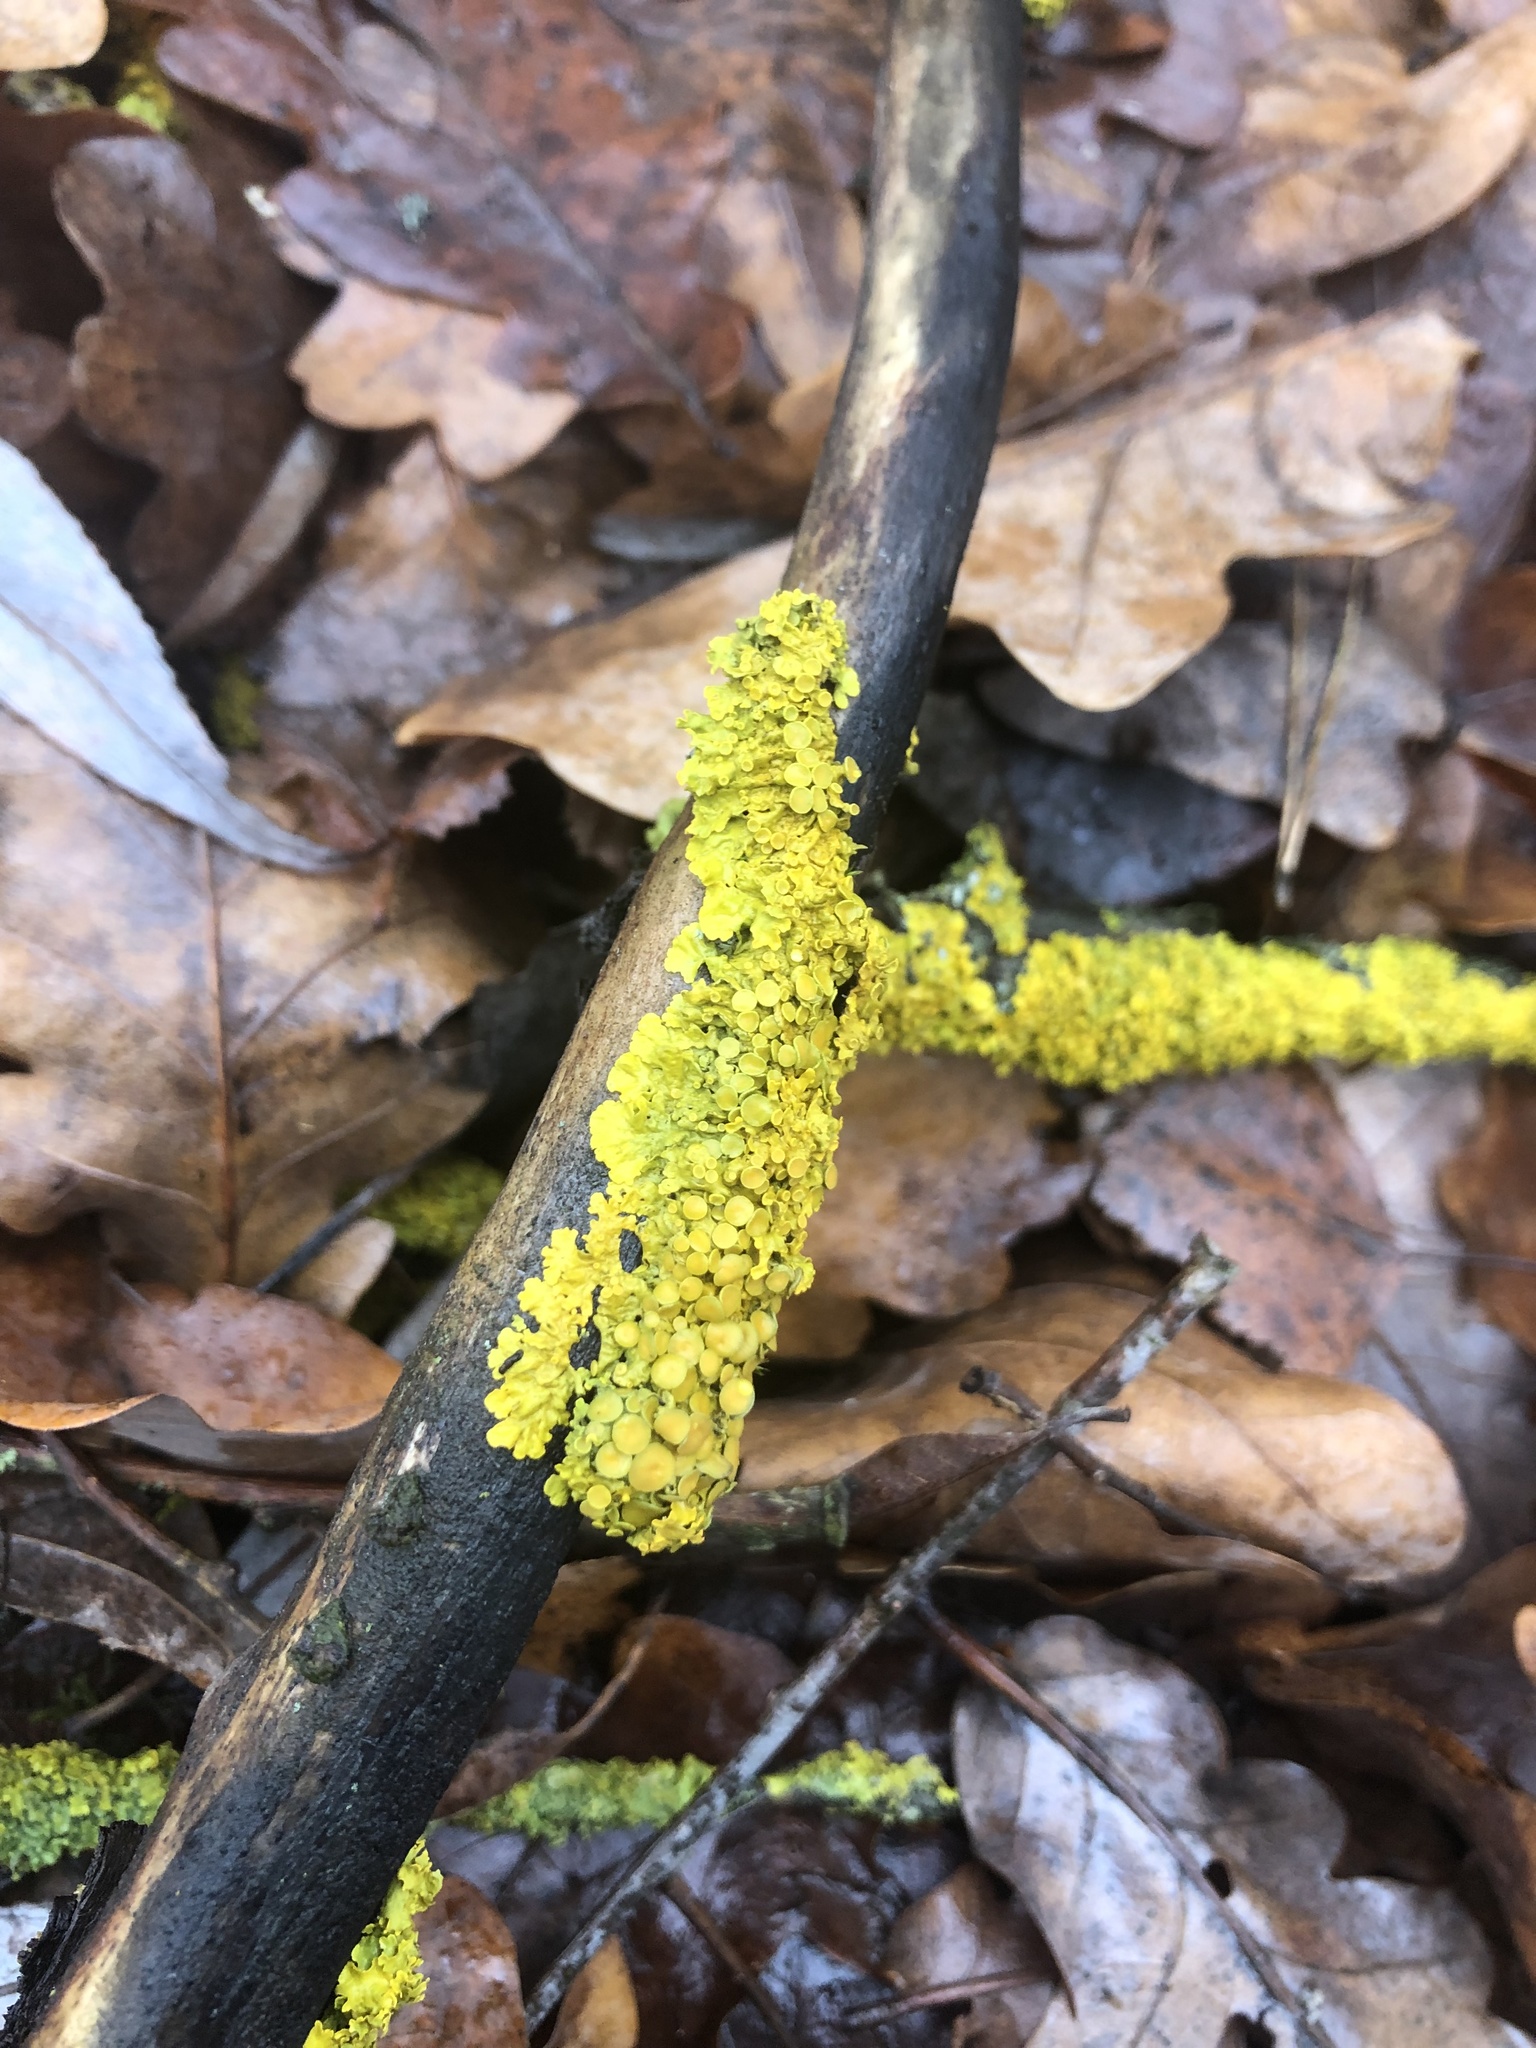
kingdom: Fungi
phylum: Ascomycota
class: Lecanoromycetes
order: Teloschistales
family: Teloschistaceae
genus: Xanthoria
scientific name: Xanthoria parietina
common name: Common orange lichen
